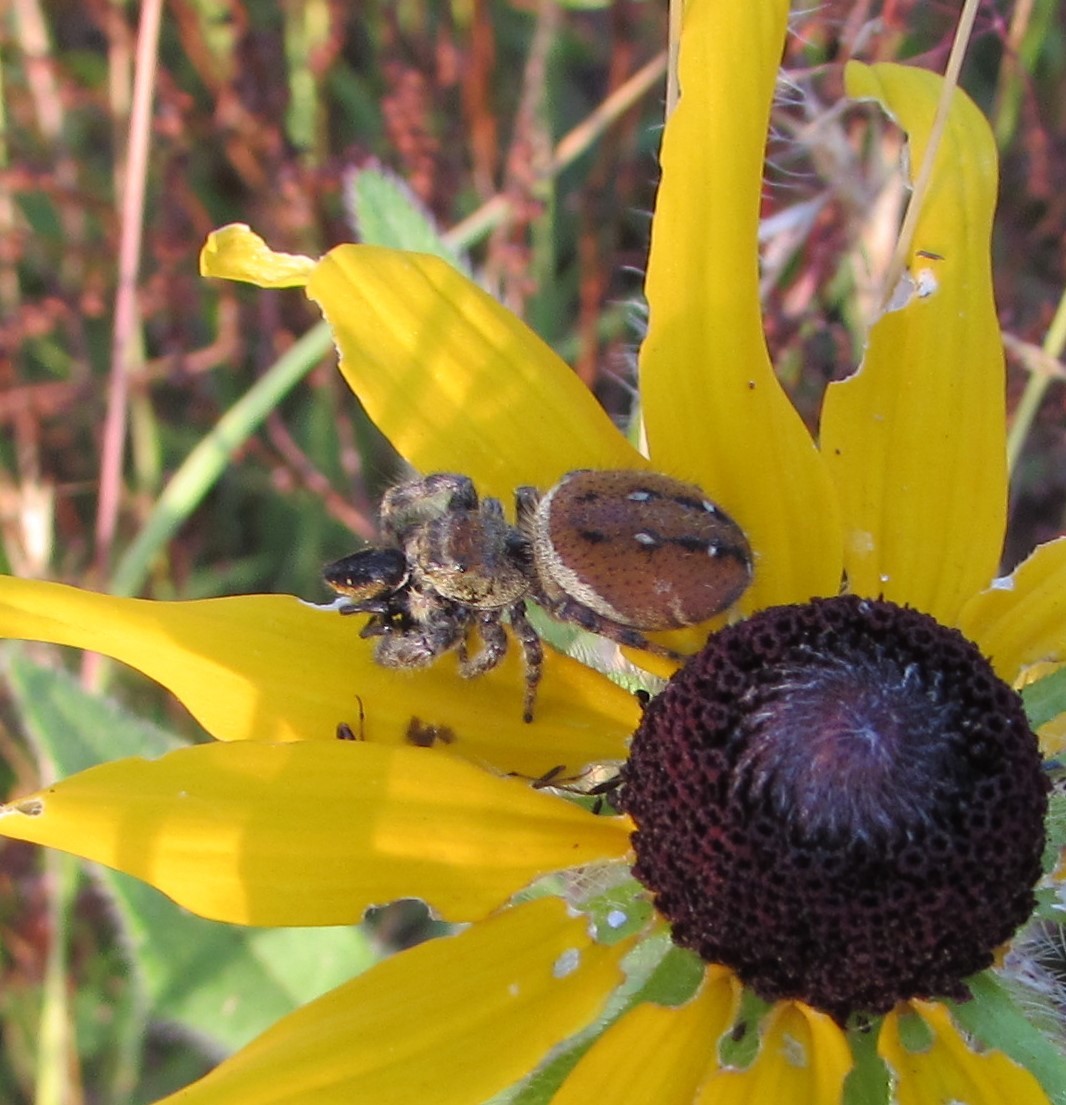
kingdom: Animalia
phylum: Arthropoda
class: Arachnida
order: Araneae
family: Salticidae
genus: Phidippus
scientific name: Phidippus clarus
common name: Brilliant jumping spider
